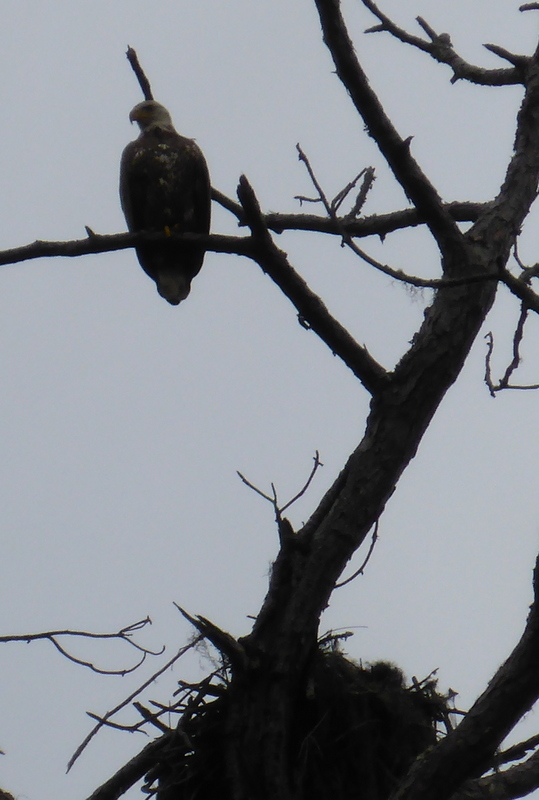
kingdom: Animalia
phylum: Chordata
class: Aves
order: Accipitriformes
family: Accipitridae
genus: Haliaeetus
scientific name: Haliaeetus leucocephalus
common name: Bald eagle
